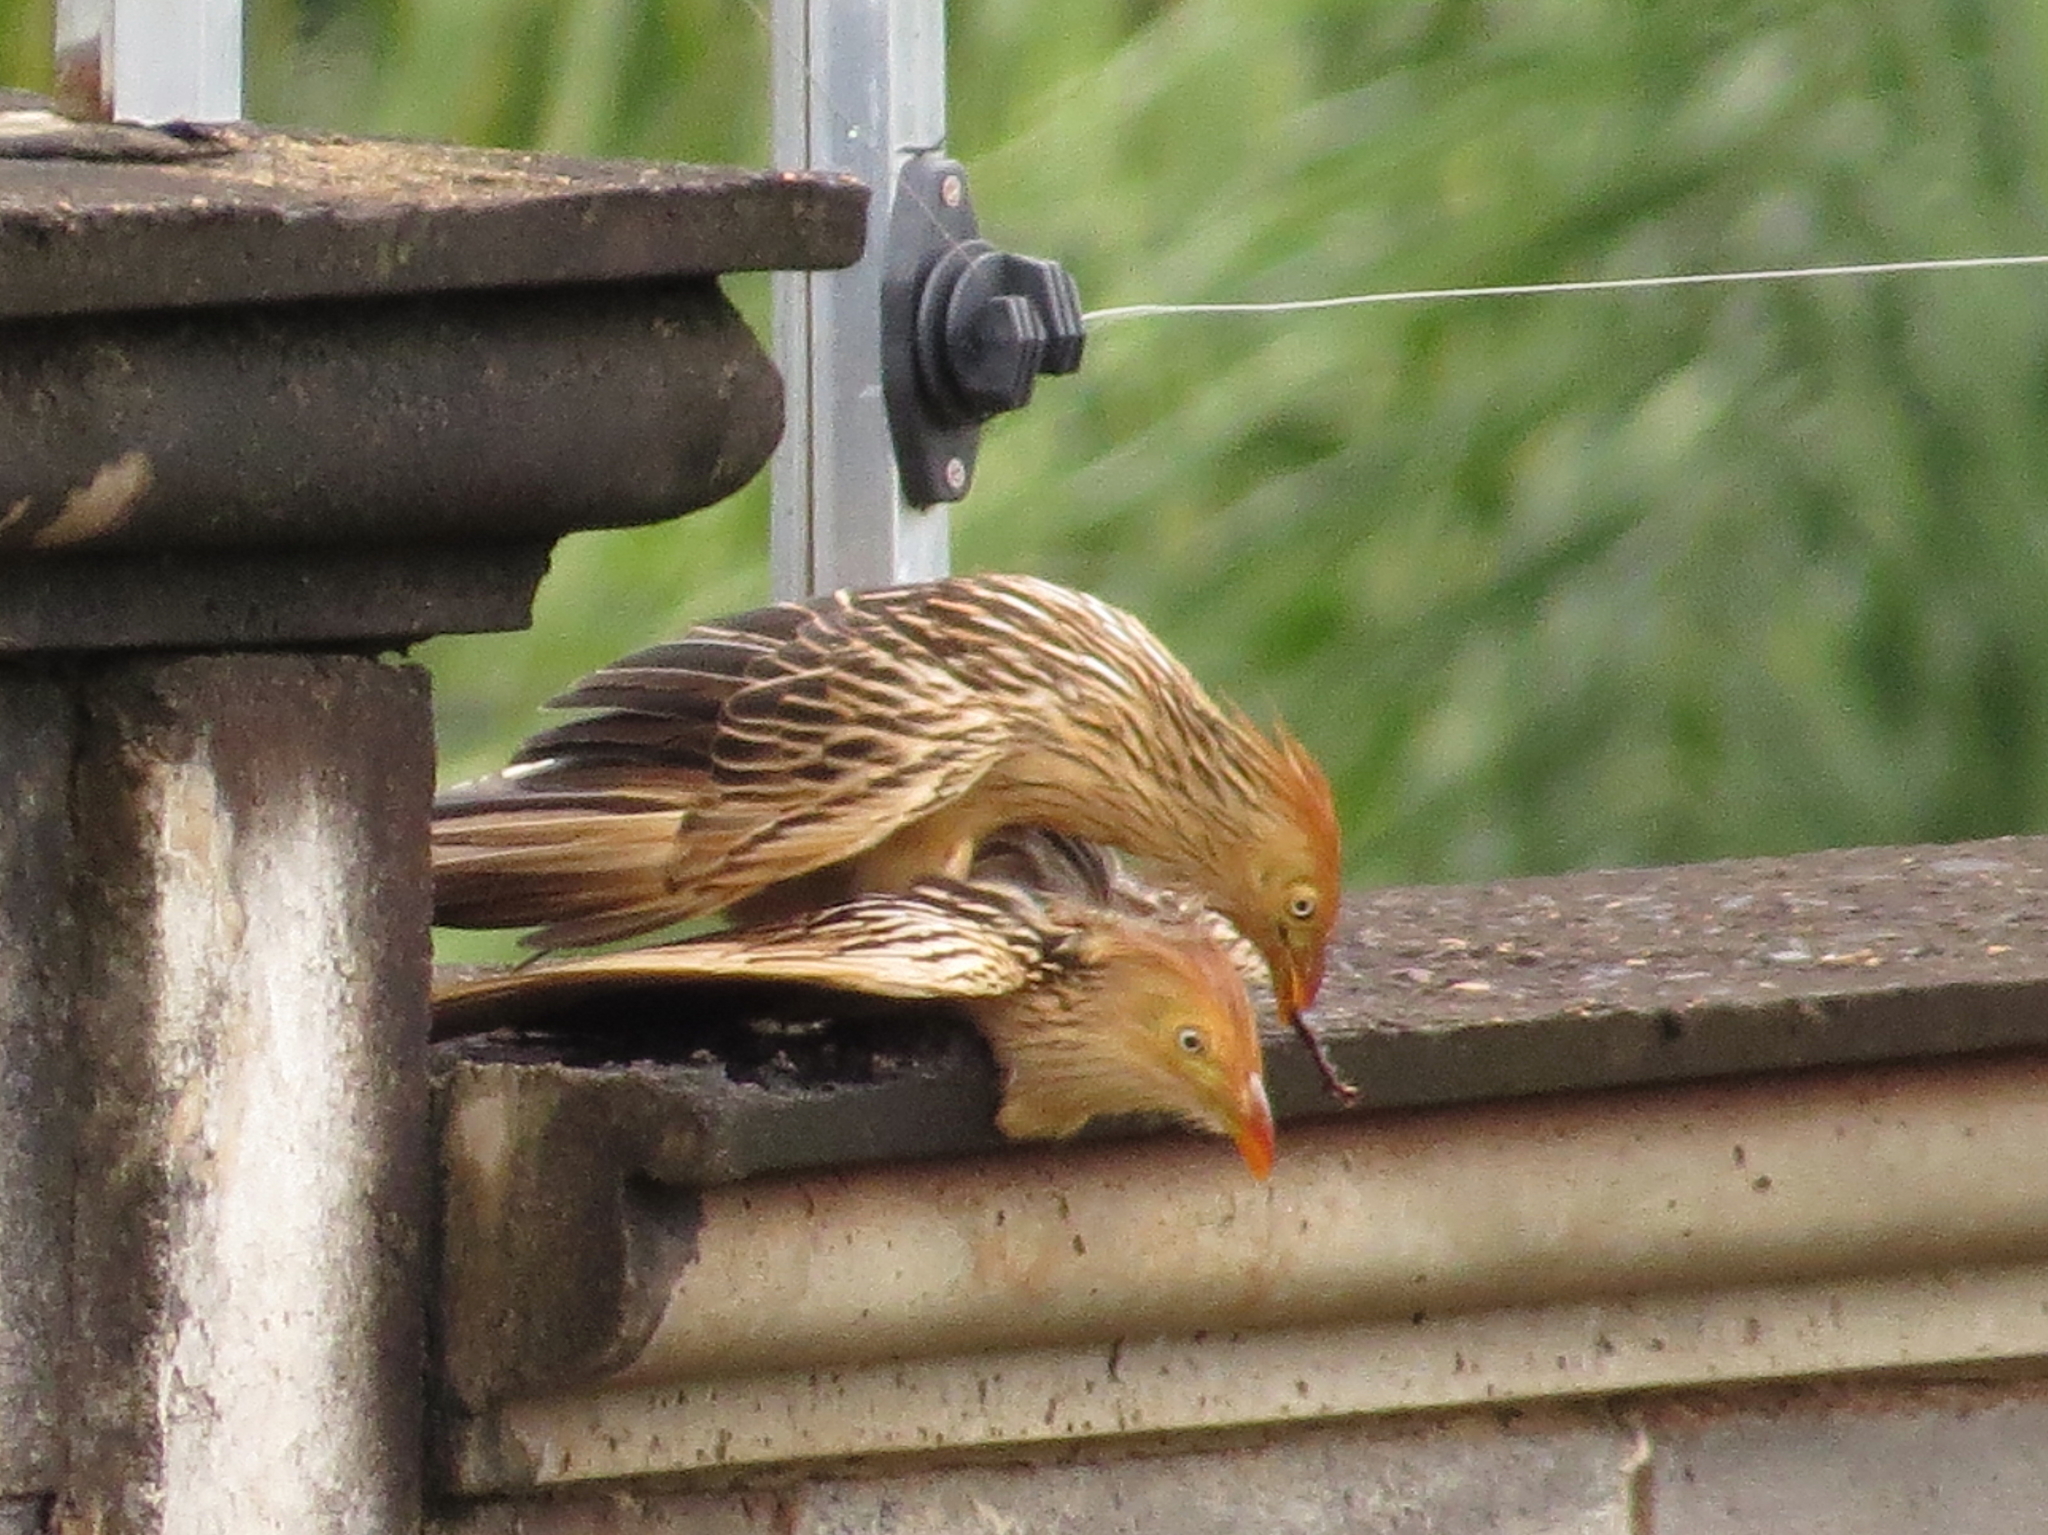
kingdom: Animalia
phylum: Chordata
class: Aves
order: Cuculiformes
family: Cuculidae
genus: Guira
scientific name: Guira guira
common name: Guira cuckoo
